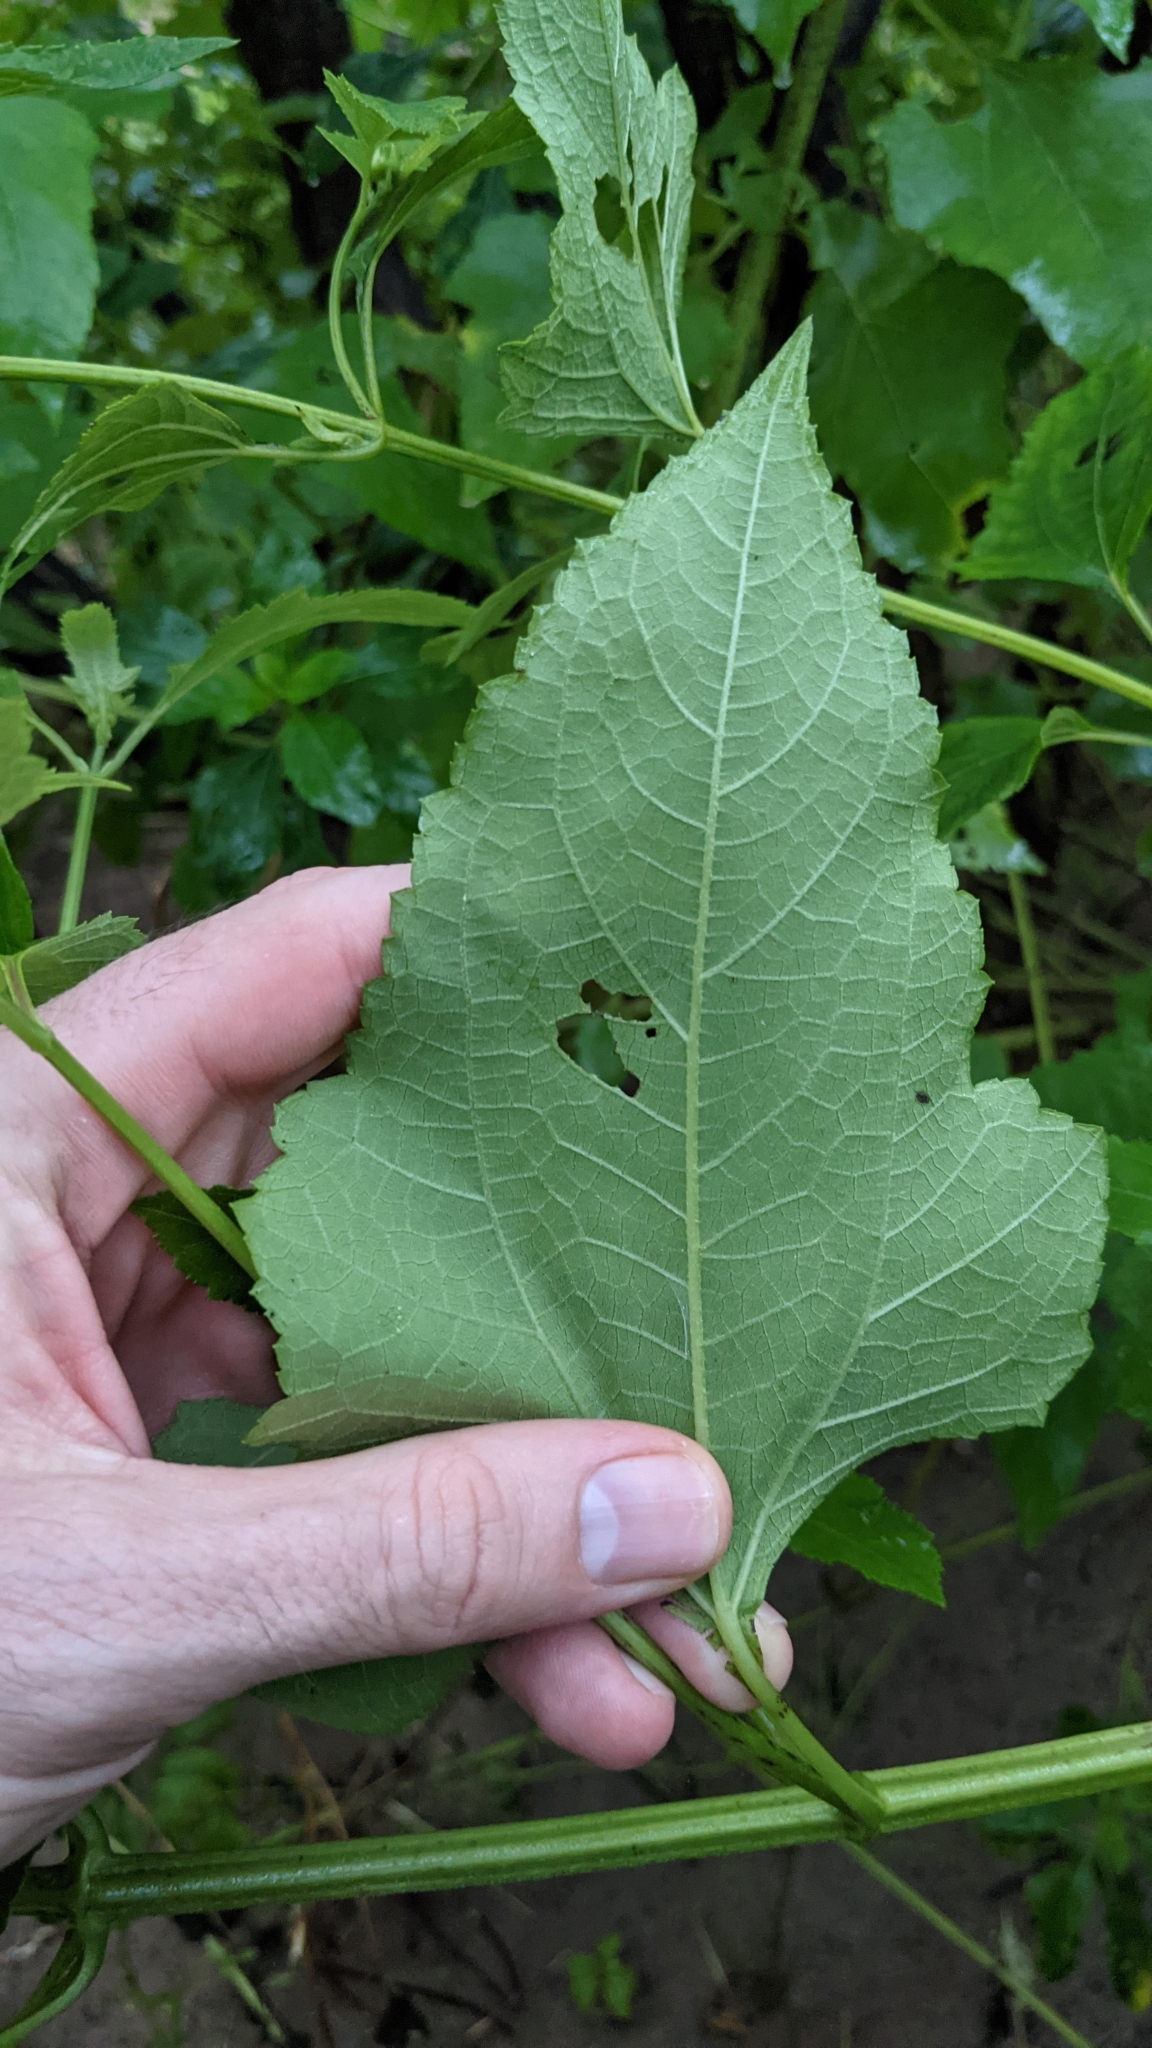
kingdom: Plantae
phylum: Tracheophyta
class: Magnoliopsida
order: Asterales
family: Asteraceae
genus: Melanthera
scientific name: Melanthera nivea
